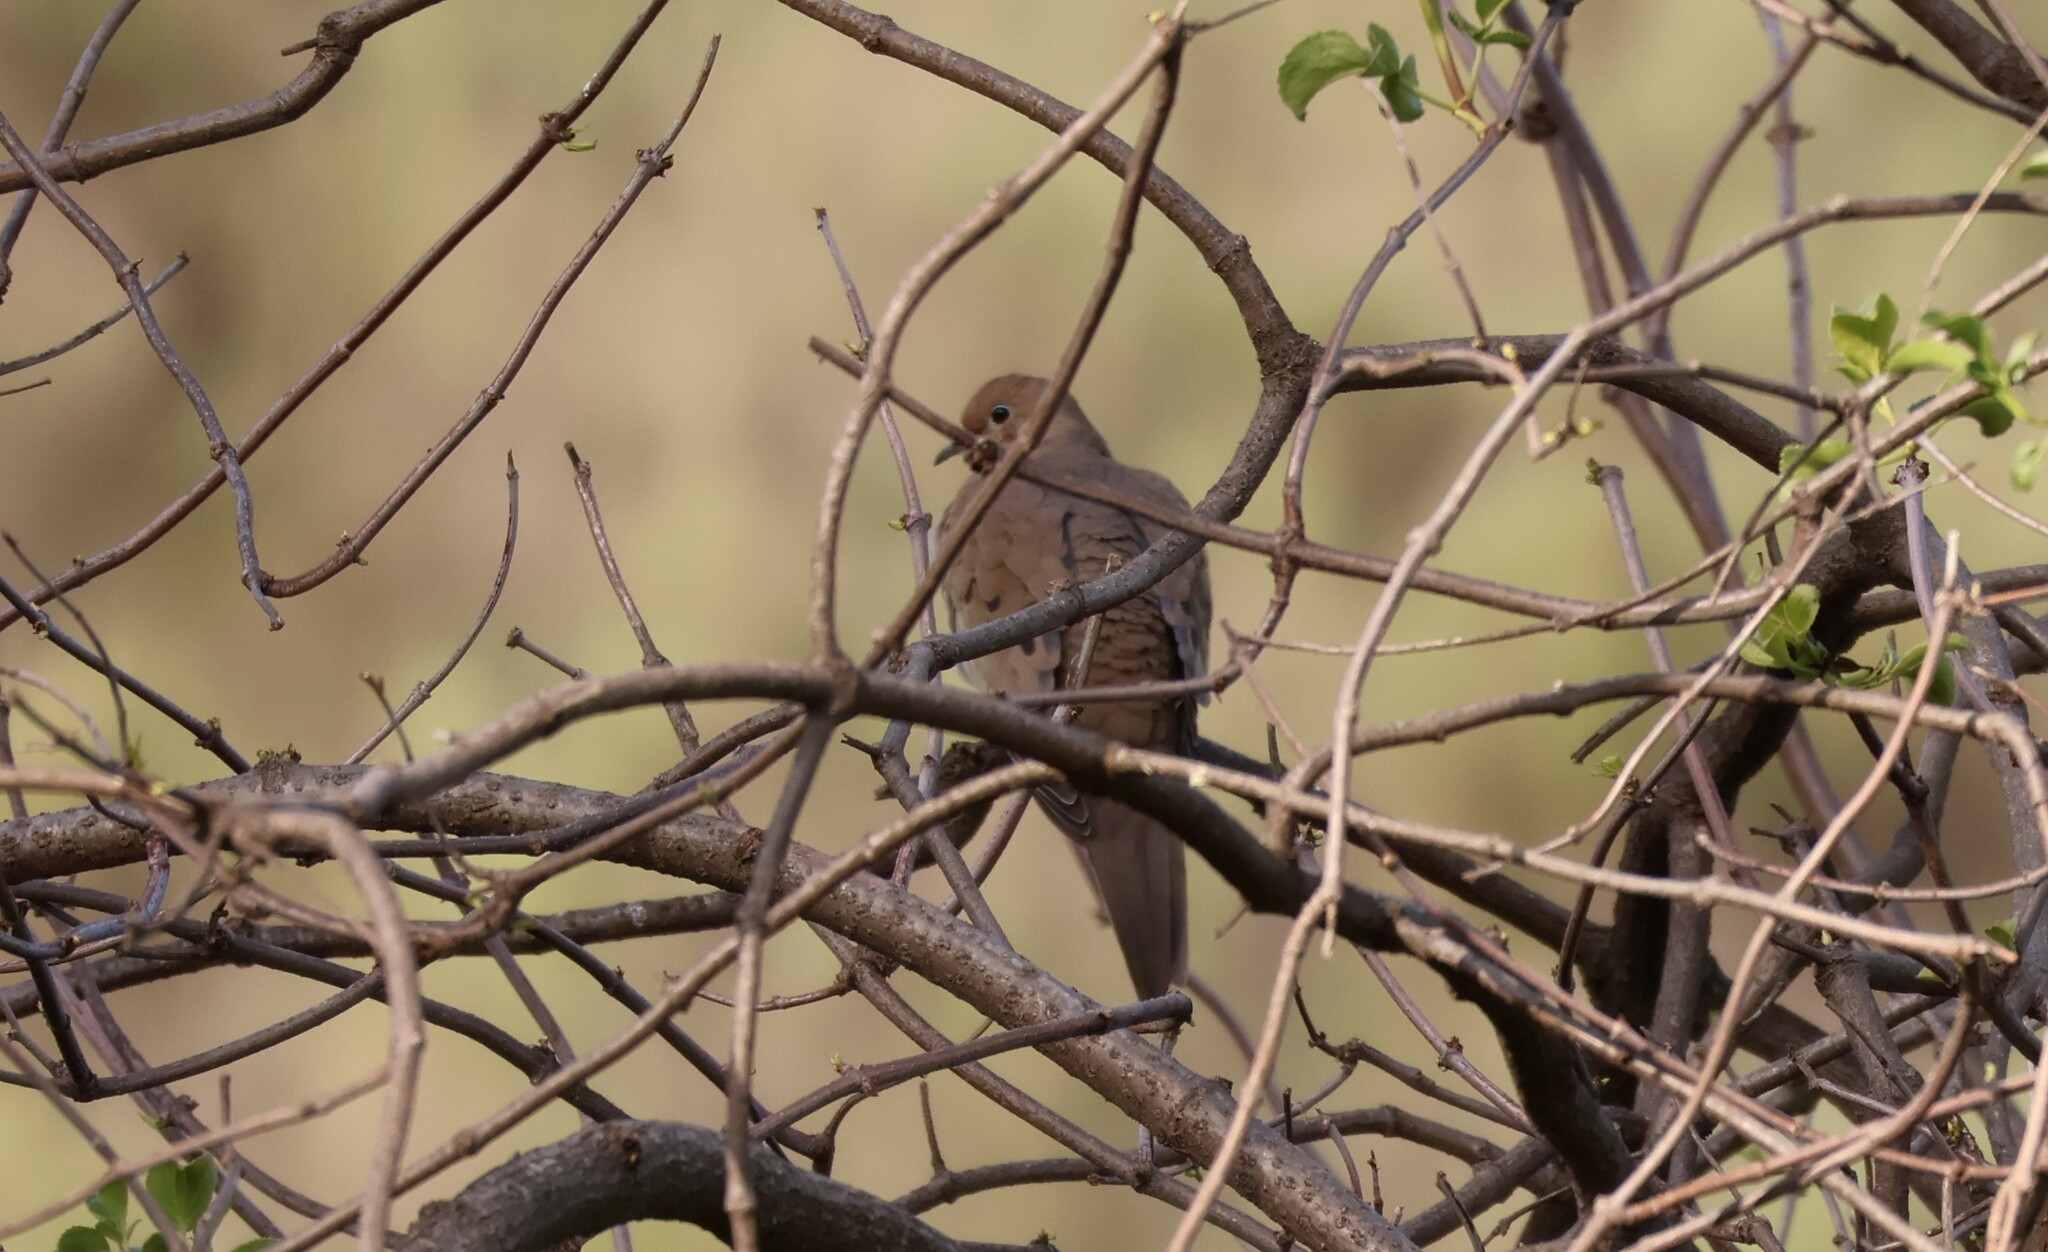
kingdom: Animalia
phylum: Chordata
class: Aves
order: Columbiformes
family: Columbidae
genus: Zenaida
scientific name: Zenaida macroura
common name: Mourning dove
